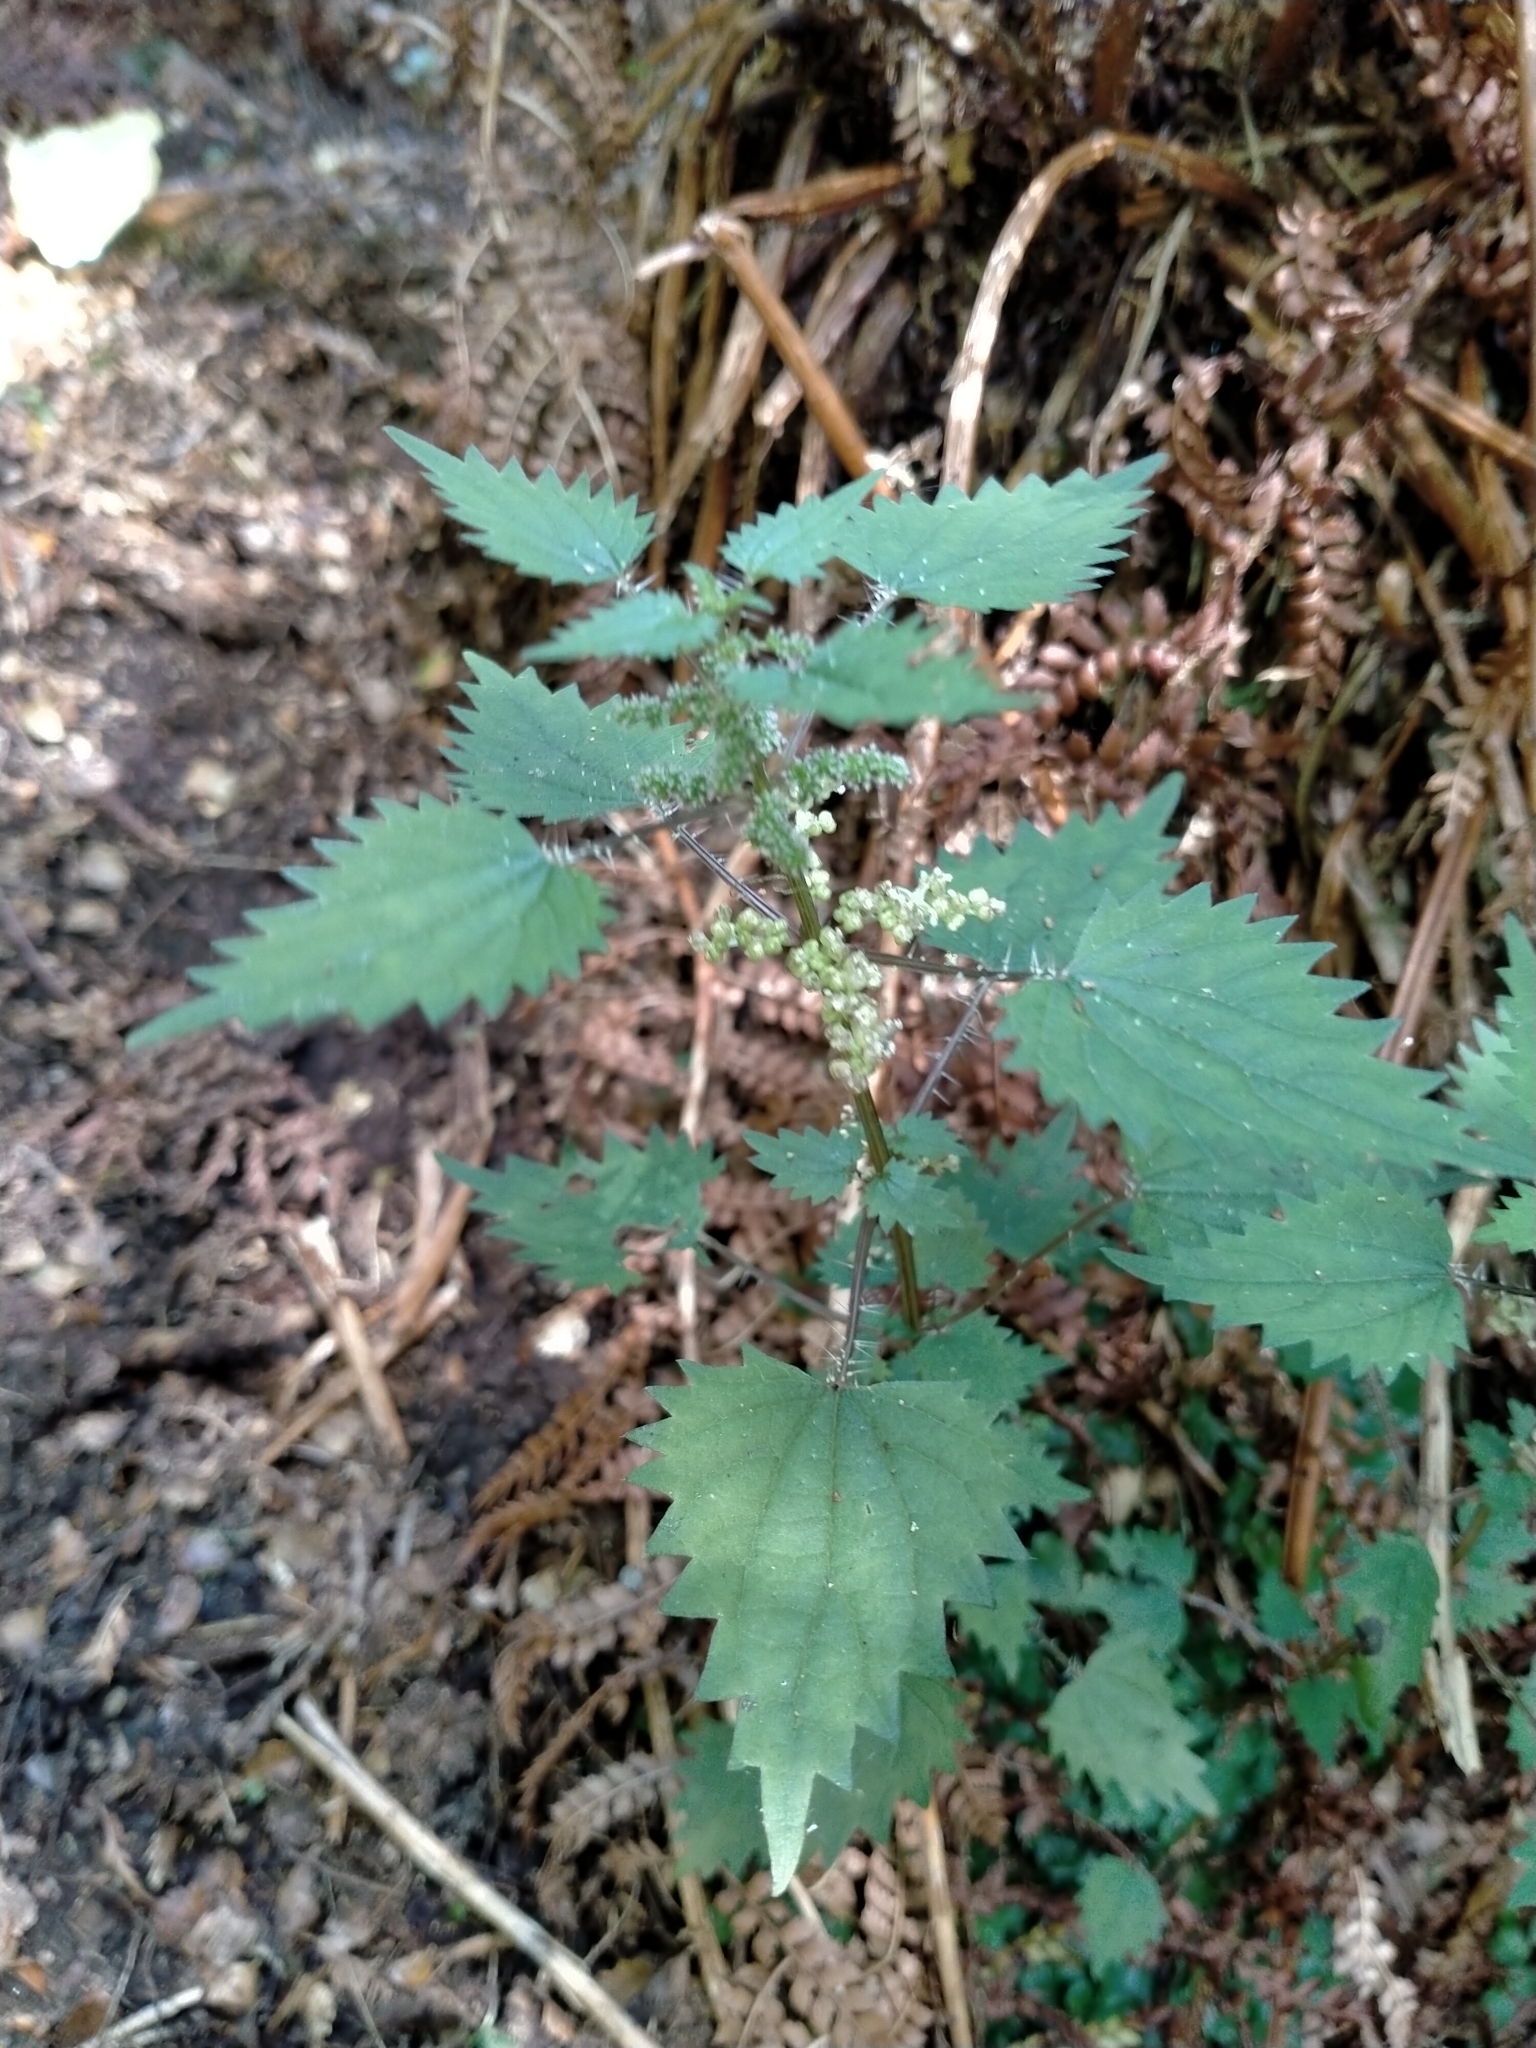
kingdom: Plantae
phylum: Tracheophyta
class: Magnoliopsida
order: Rosales
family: Urticaceae
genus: Urtica
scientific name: Urtica sykesii
